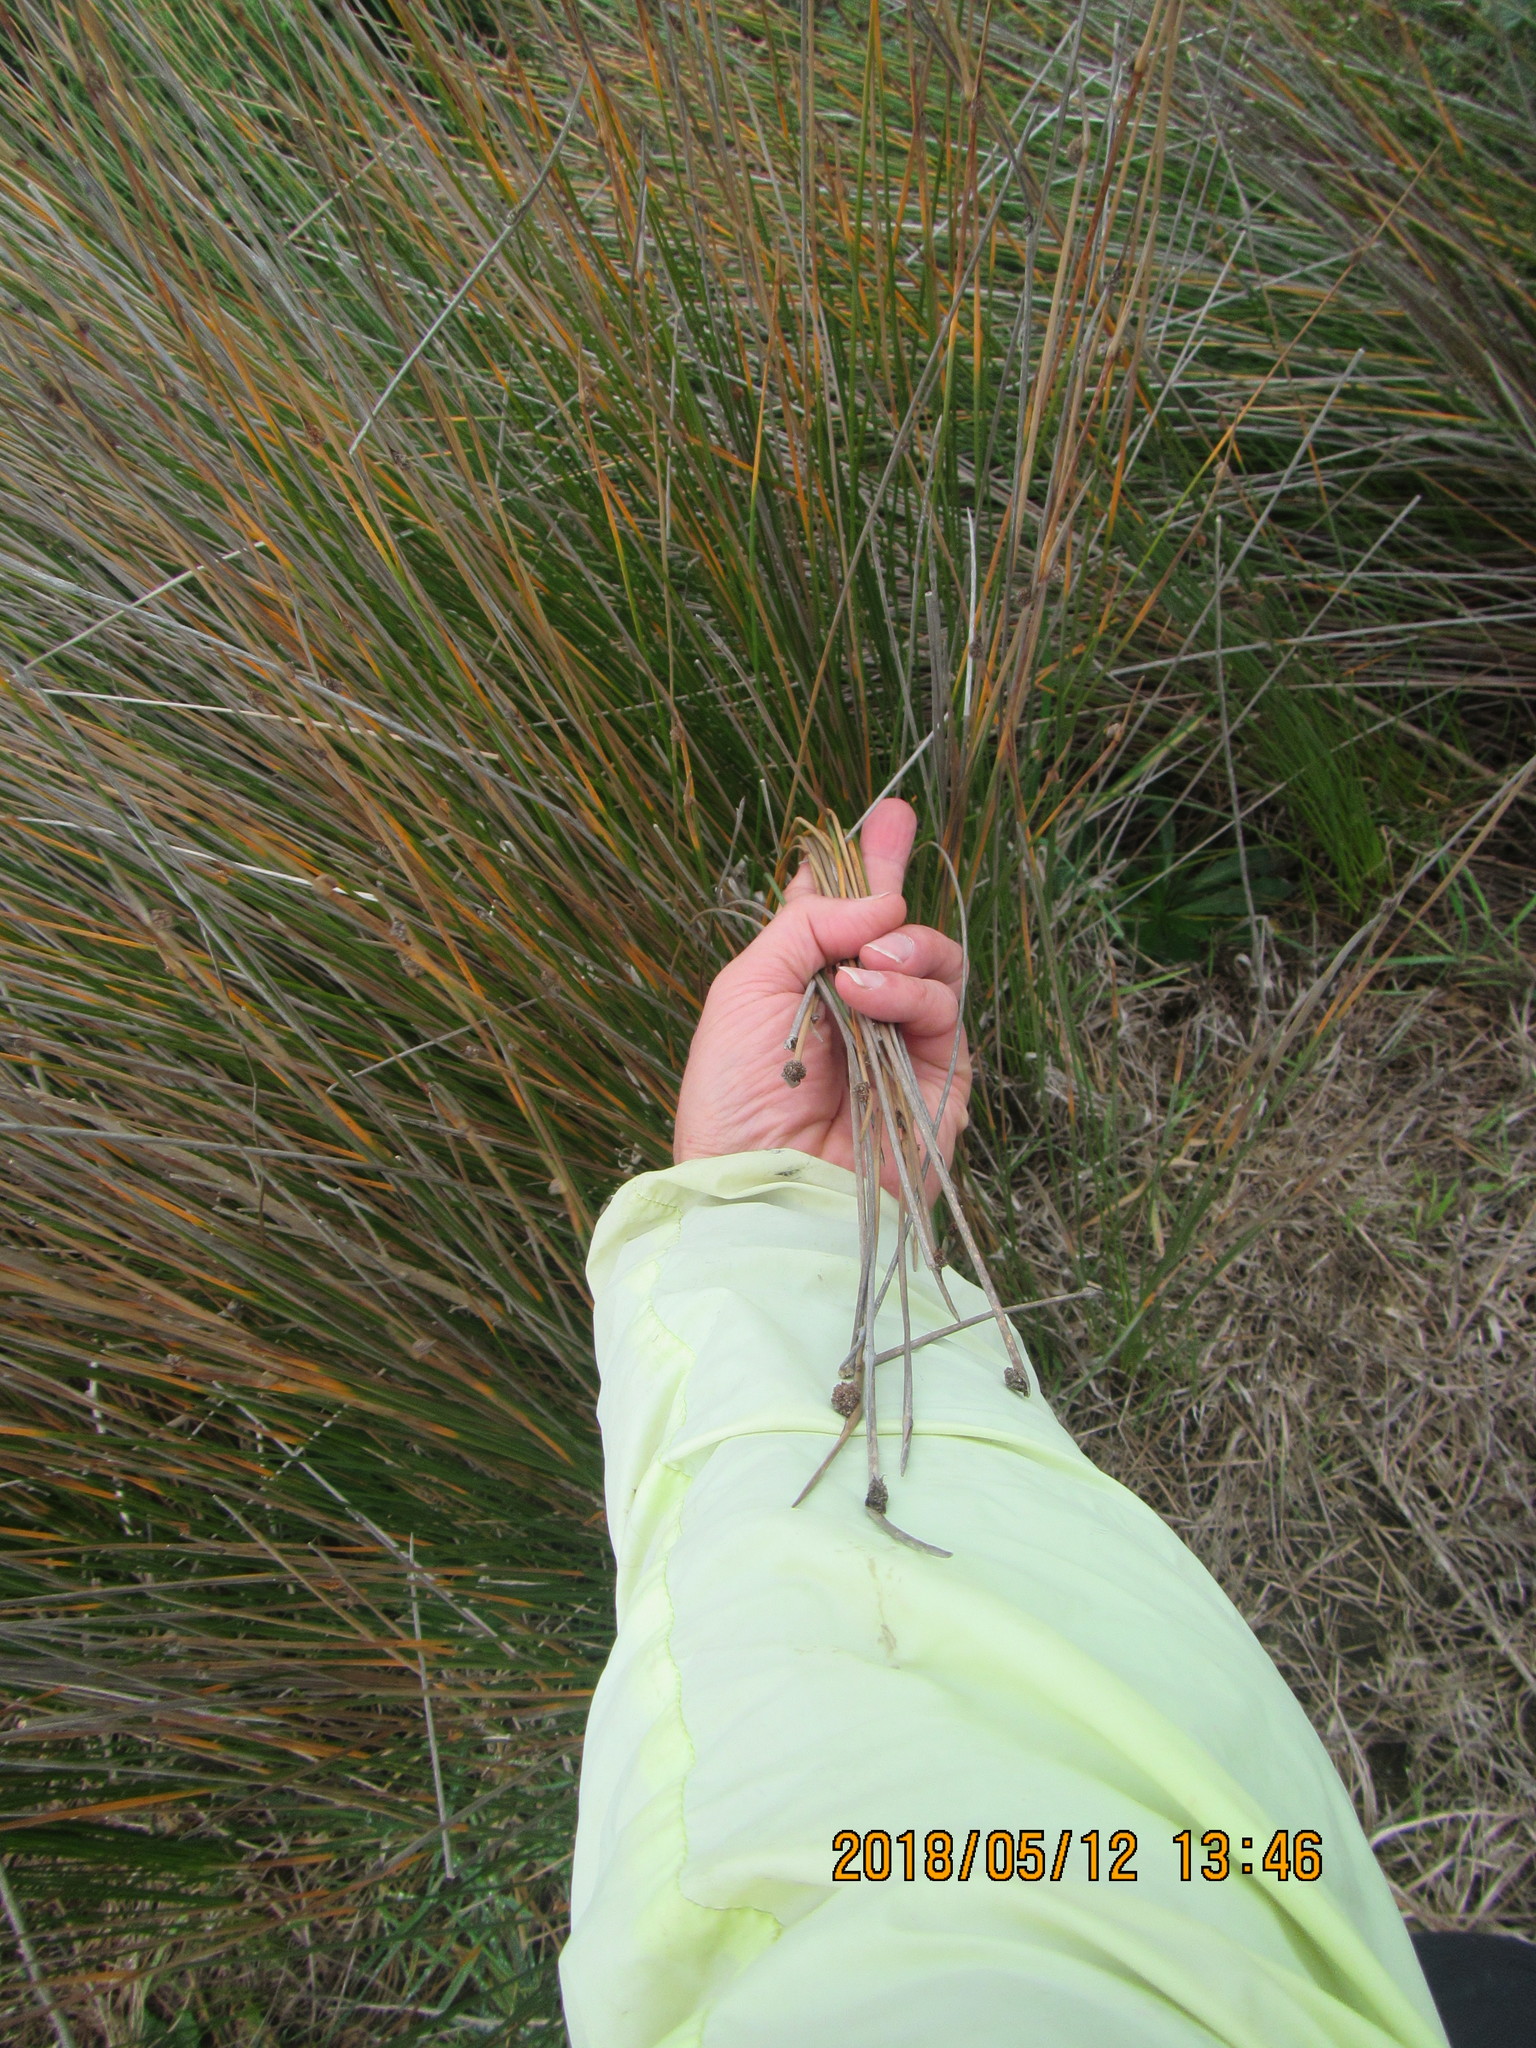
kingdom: Plantae
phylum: Tracheophyta
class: Liliopsida
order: Poales
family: Cyperaceae
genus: Ficinia
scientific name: Ficinia nodosa
